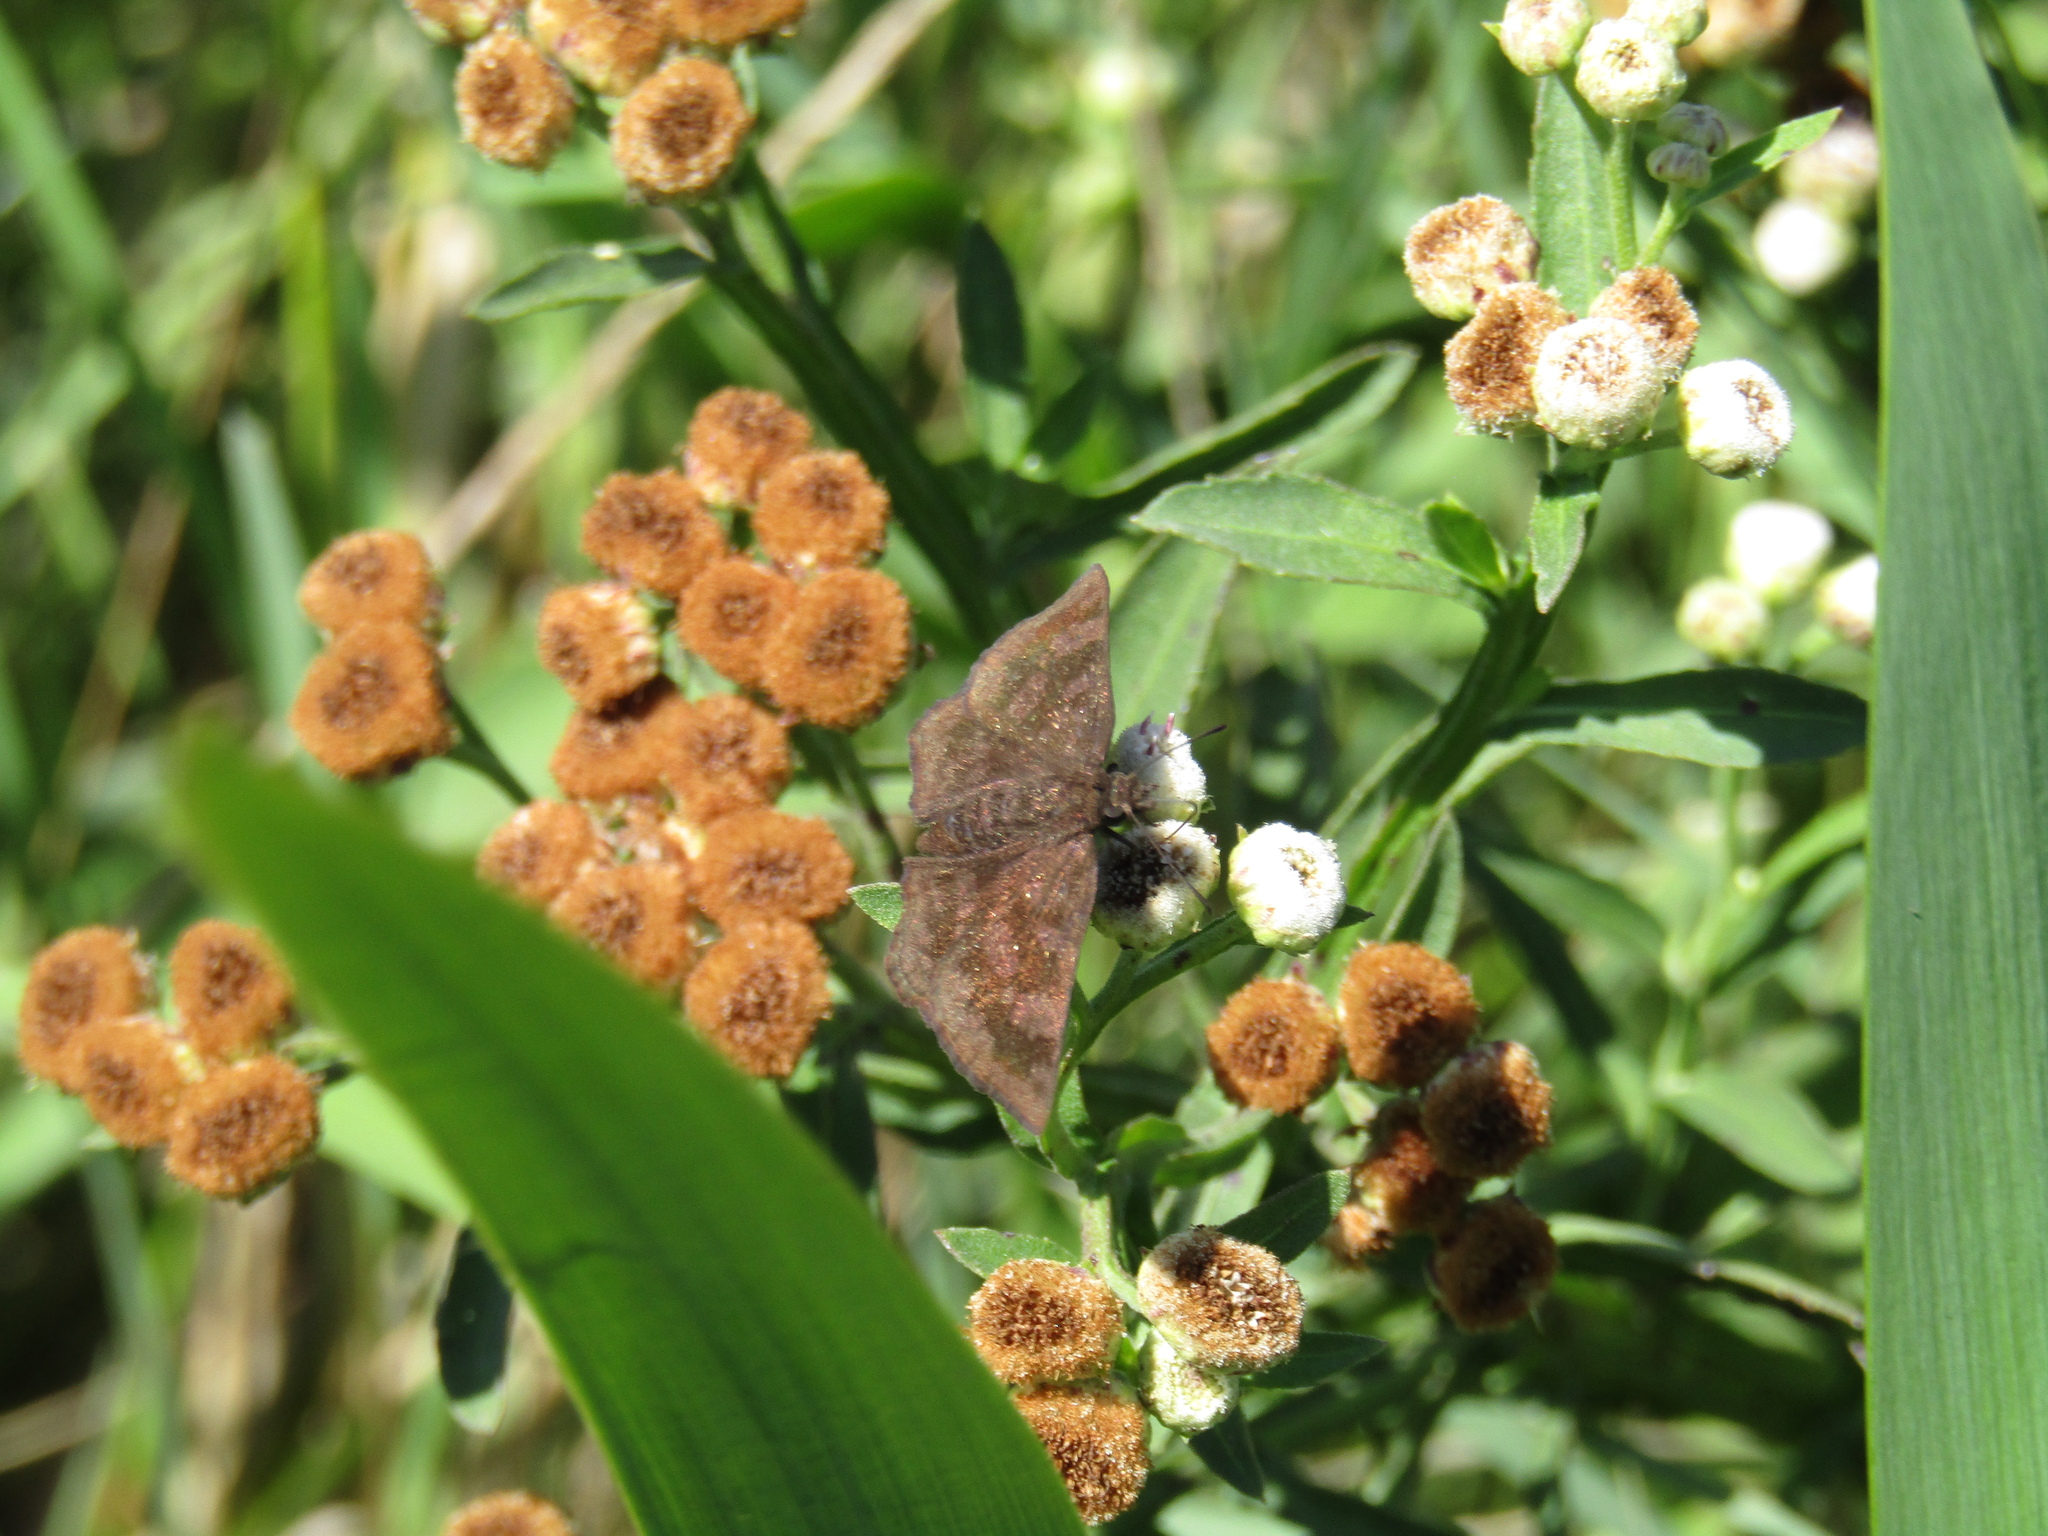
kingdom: Animalia
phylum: Arthropoda
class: Insecta
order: Lepidoptera
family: Hesperiidae
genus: Viola
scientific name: Viola minor
